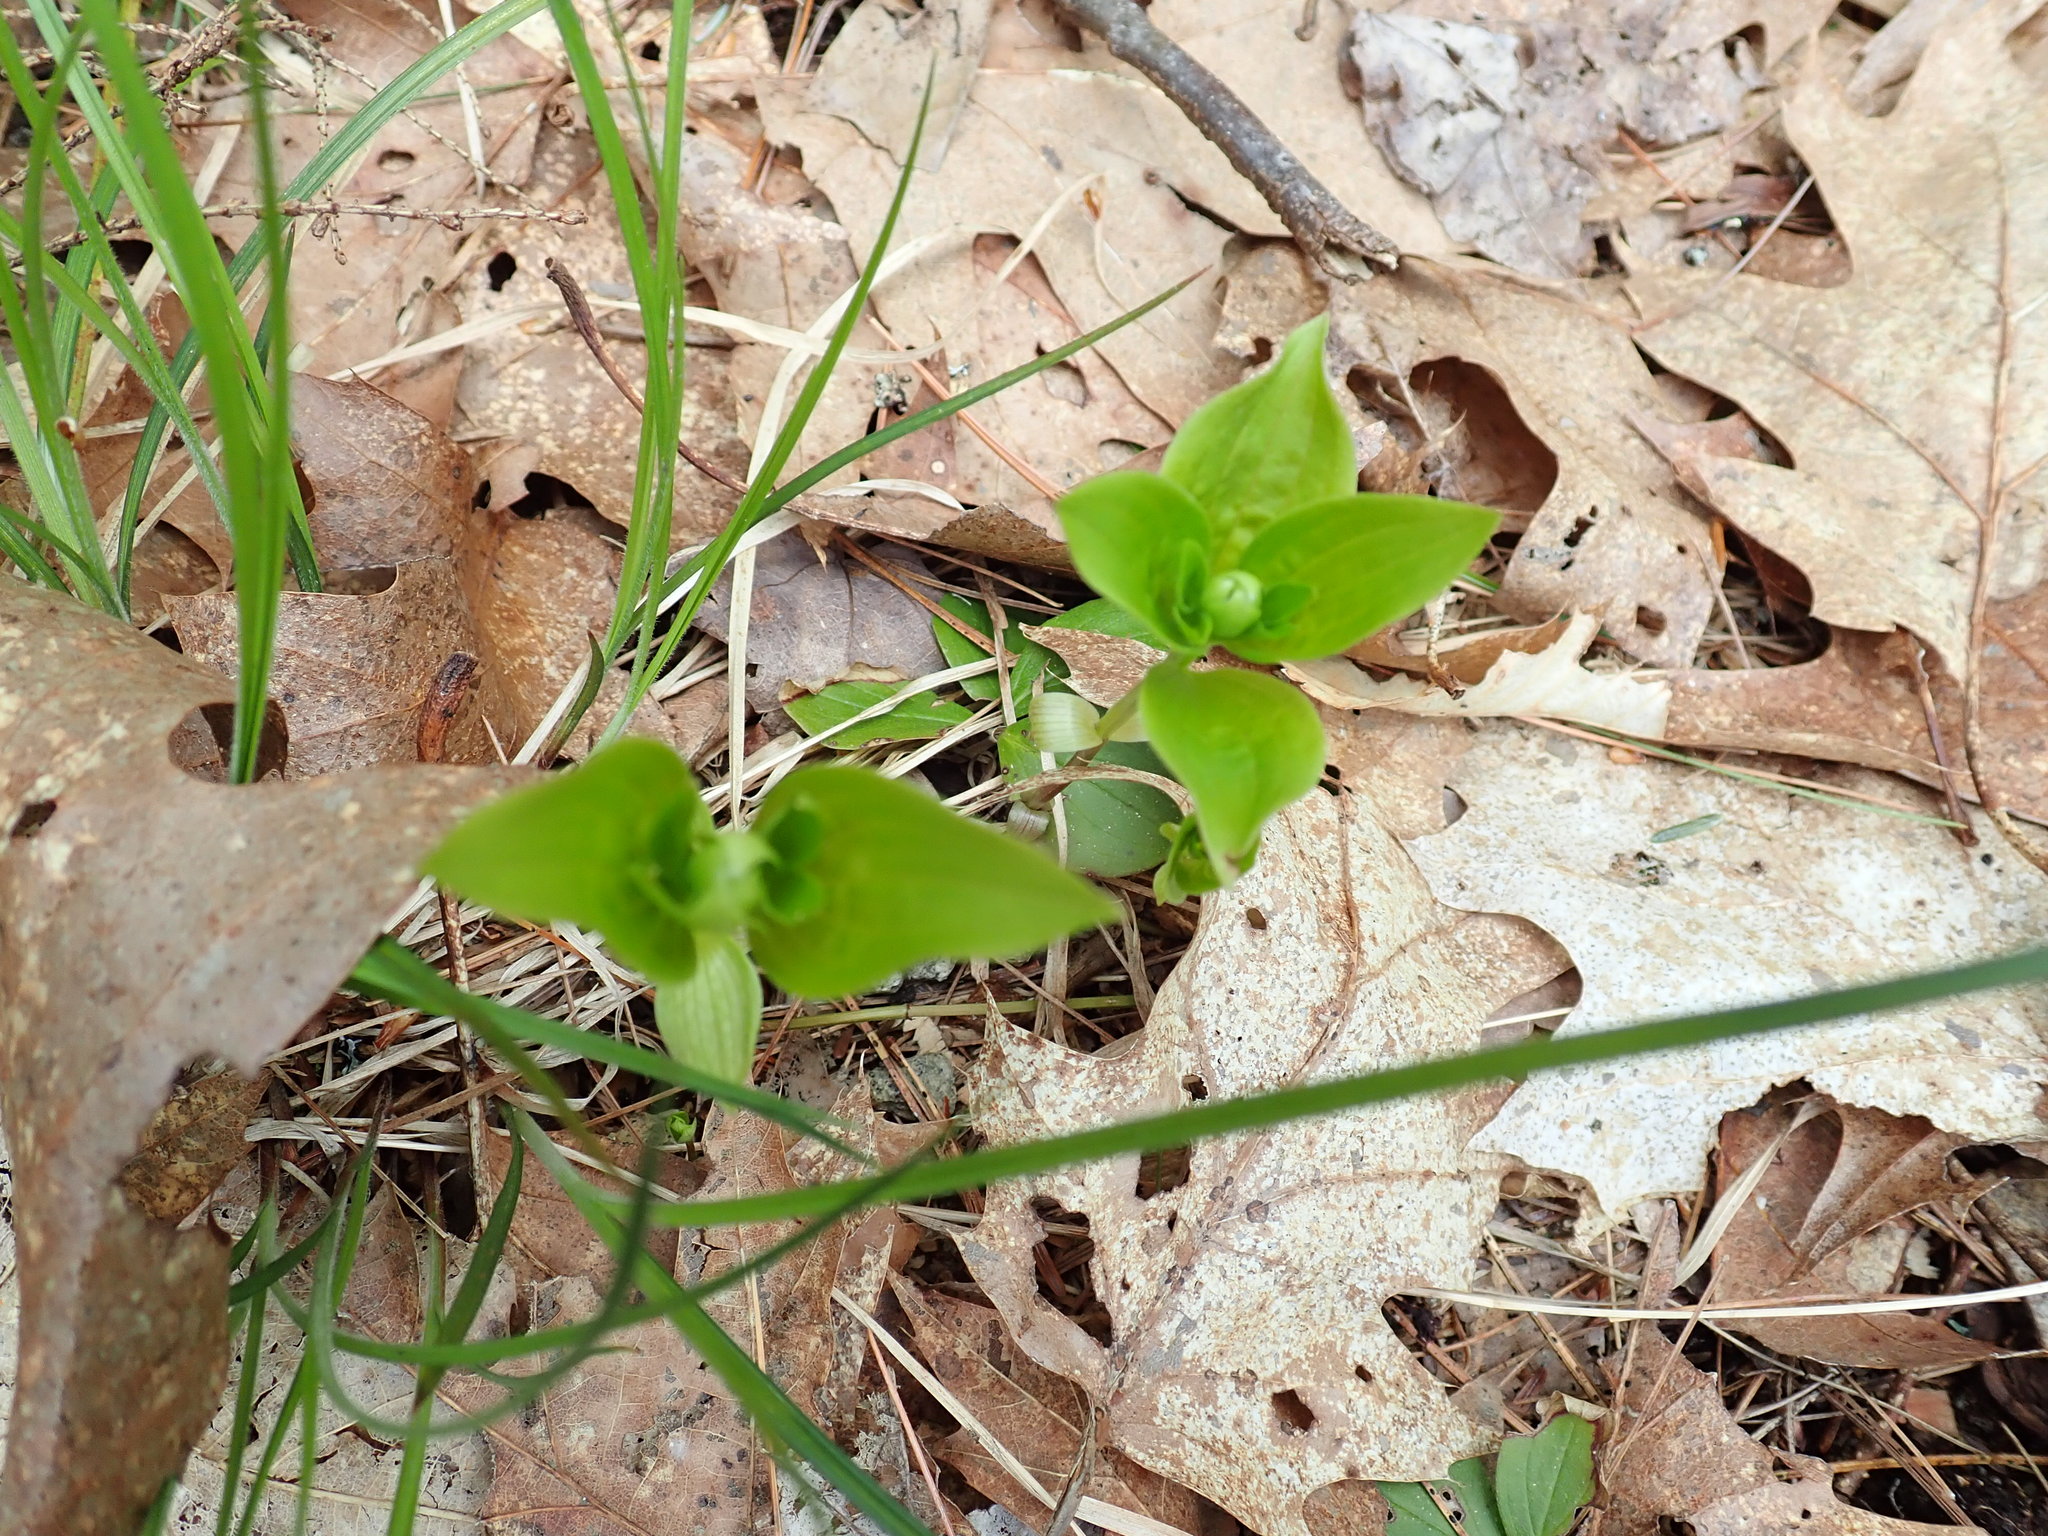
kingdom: Plantae
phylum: Tracheophyta
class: Magnoliopsida
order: Cornales
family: Cornaceae
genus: Cornus
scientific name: Cornus canadensis
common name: Creeping dogwood
